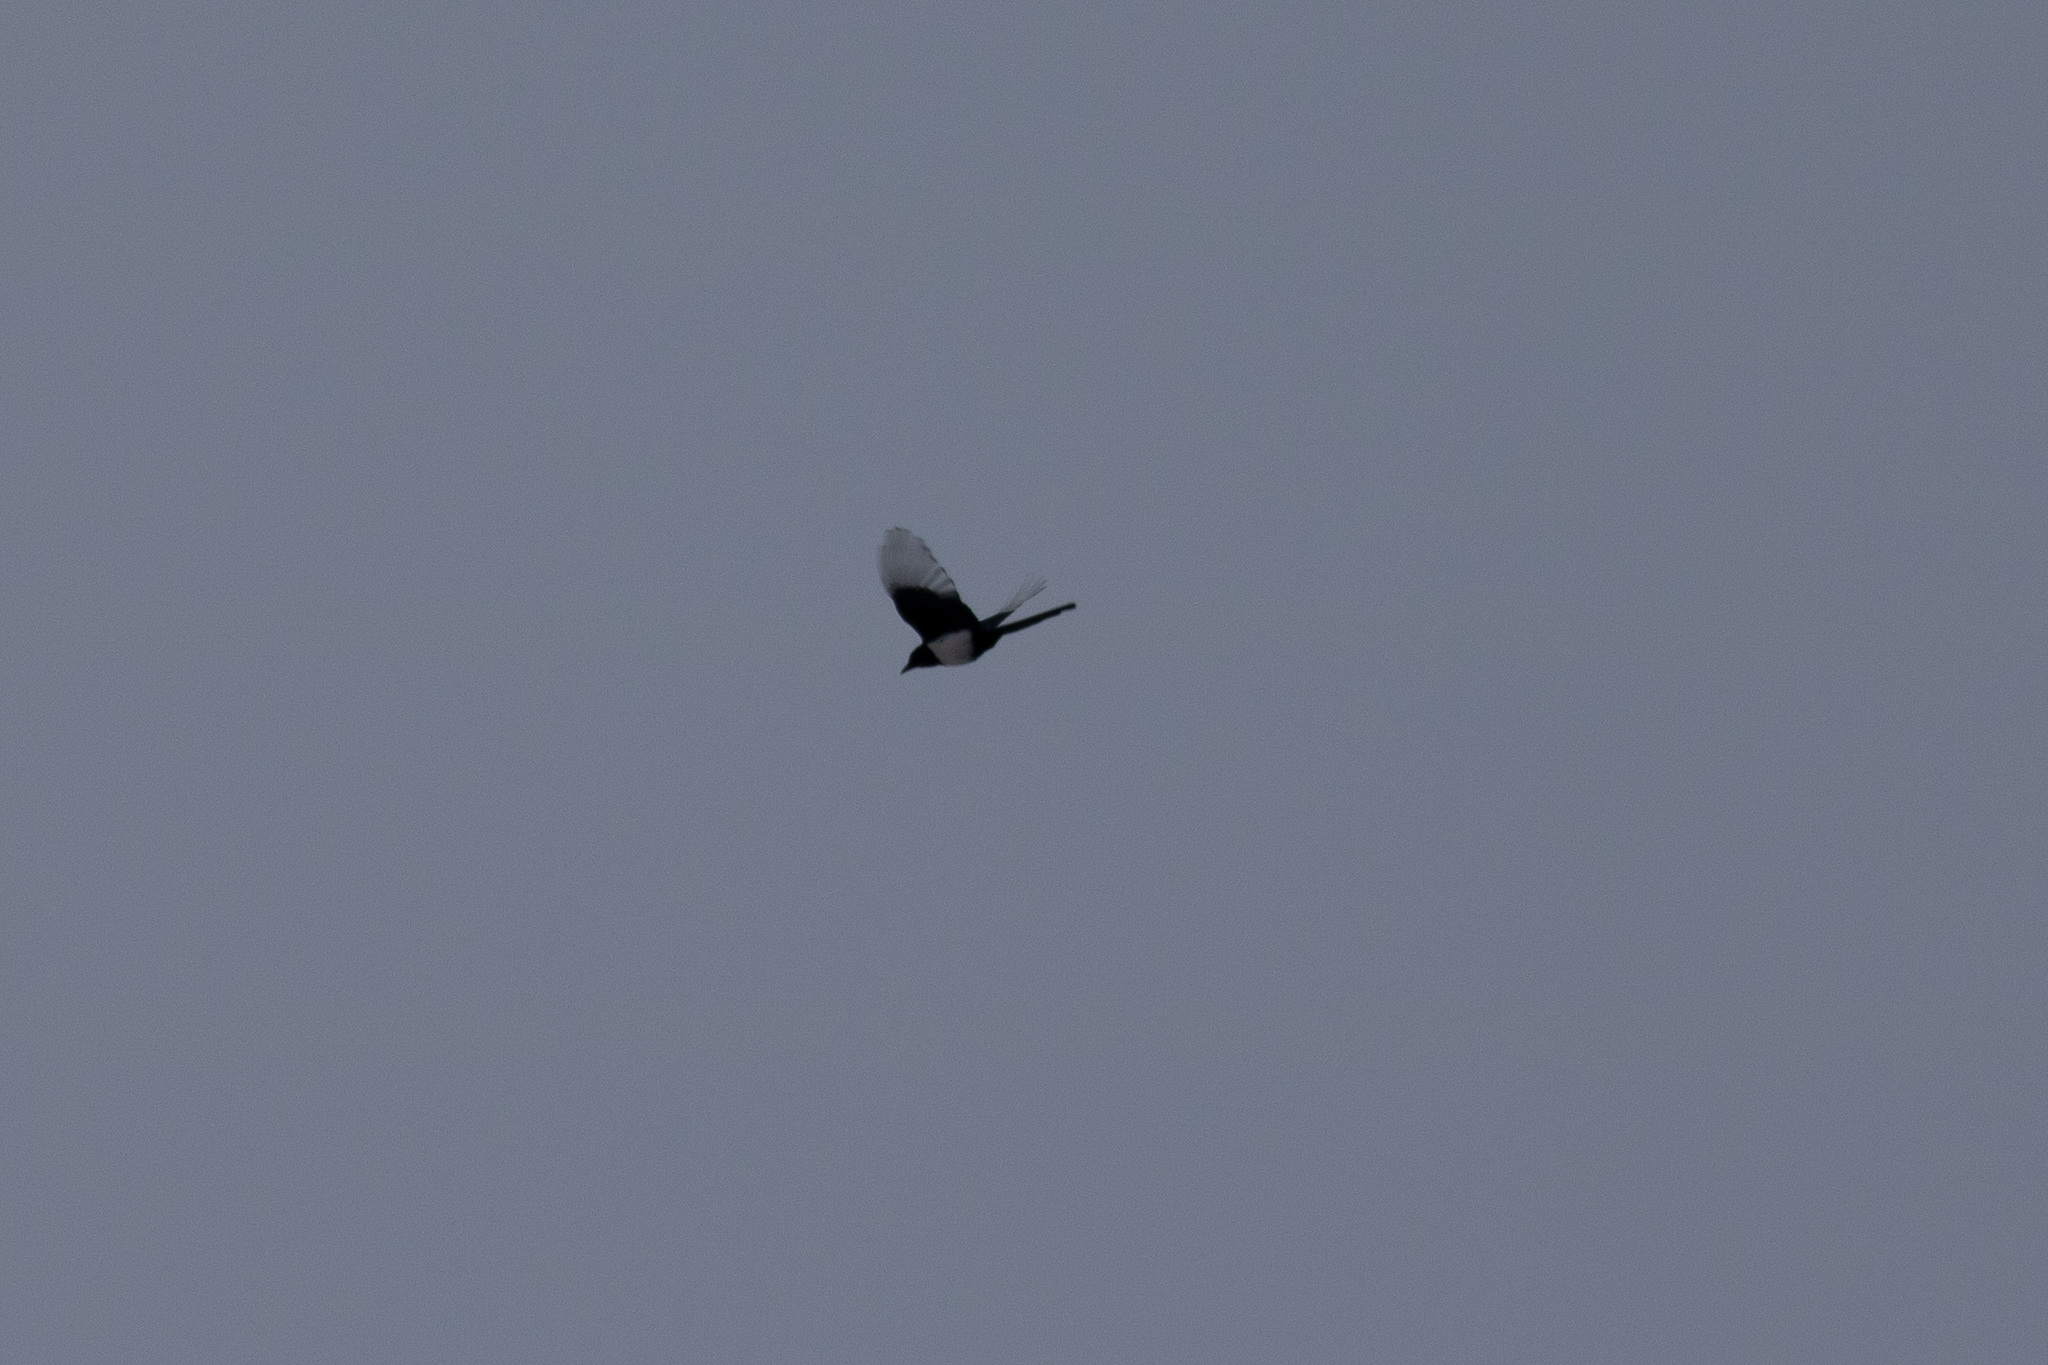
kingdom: Animalia
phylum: Chordata
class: Aves
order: Passeriformes
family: Corvidae
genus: Pica
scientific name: Pica pica
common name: Eurasian magpie
